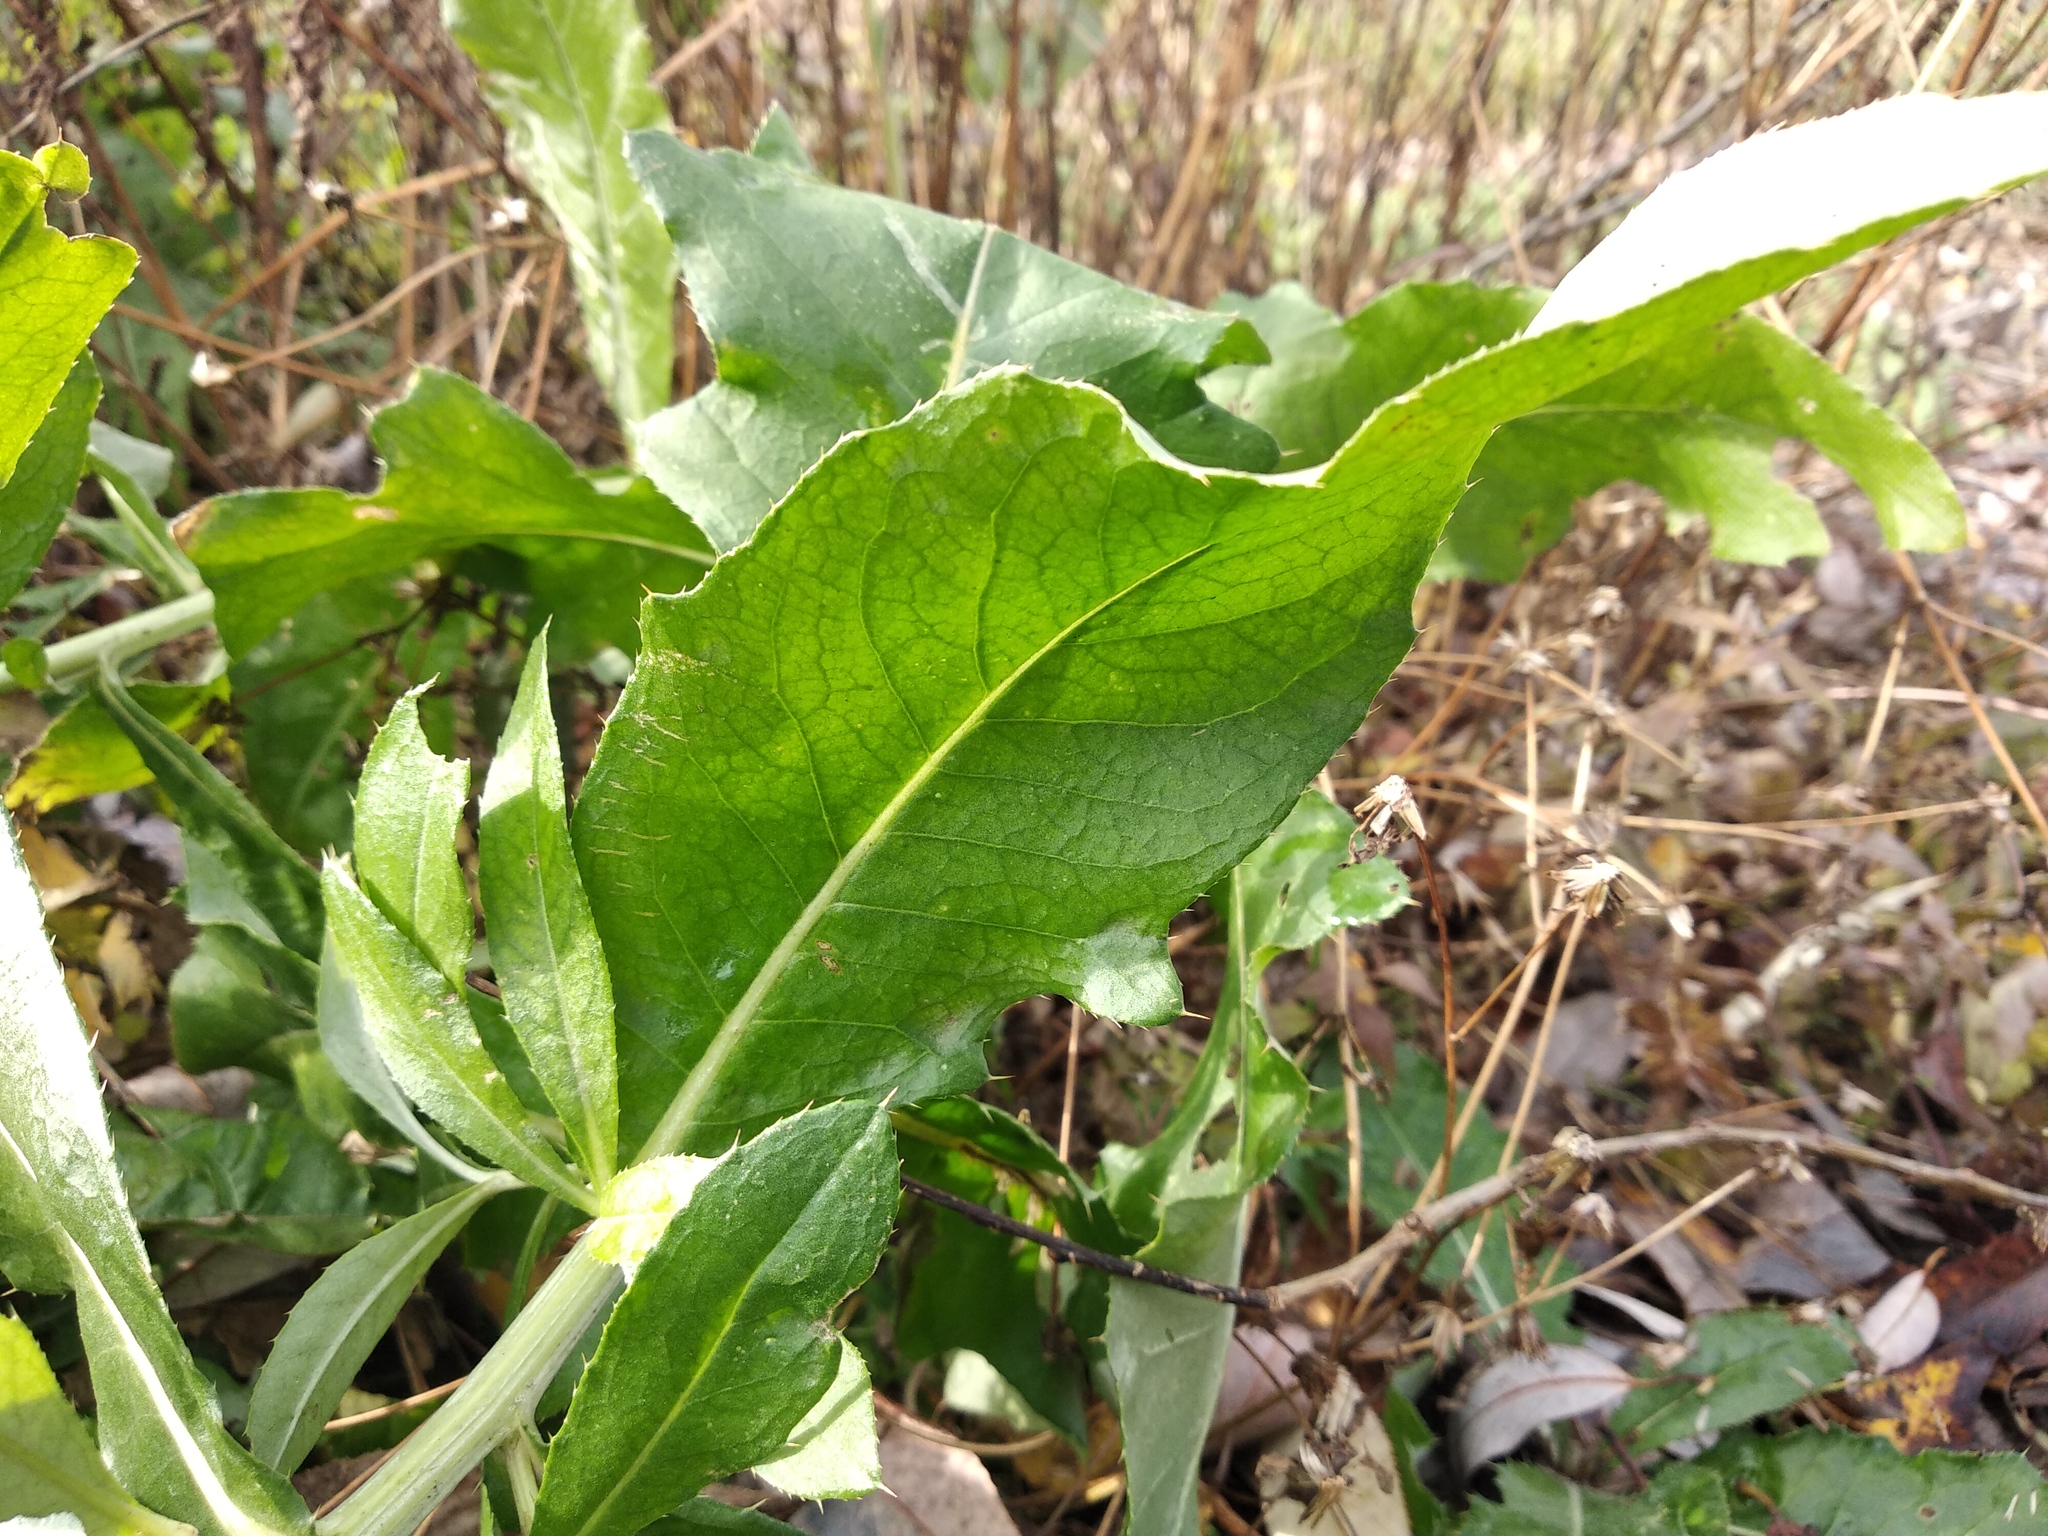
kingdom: Plantae
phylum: Tracheophyta
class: Magnoliopsida
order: Asterales
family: Asteraceae
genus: Cirsium
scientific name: Cirsium arvense
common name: Creeping thistle
